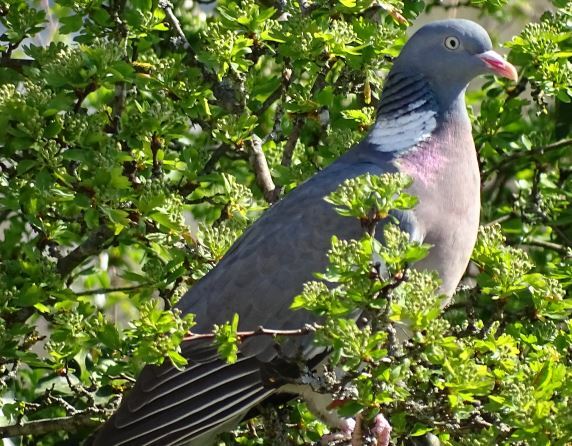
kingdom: Animalia
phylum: Chordata
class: Aves
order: Columbiformes
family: Columbidae
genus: Columba
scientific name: Columba palumbus
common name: Common wood pigeon
